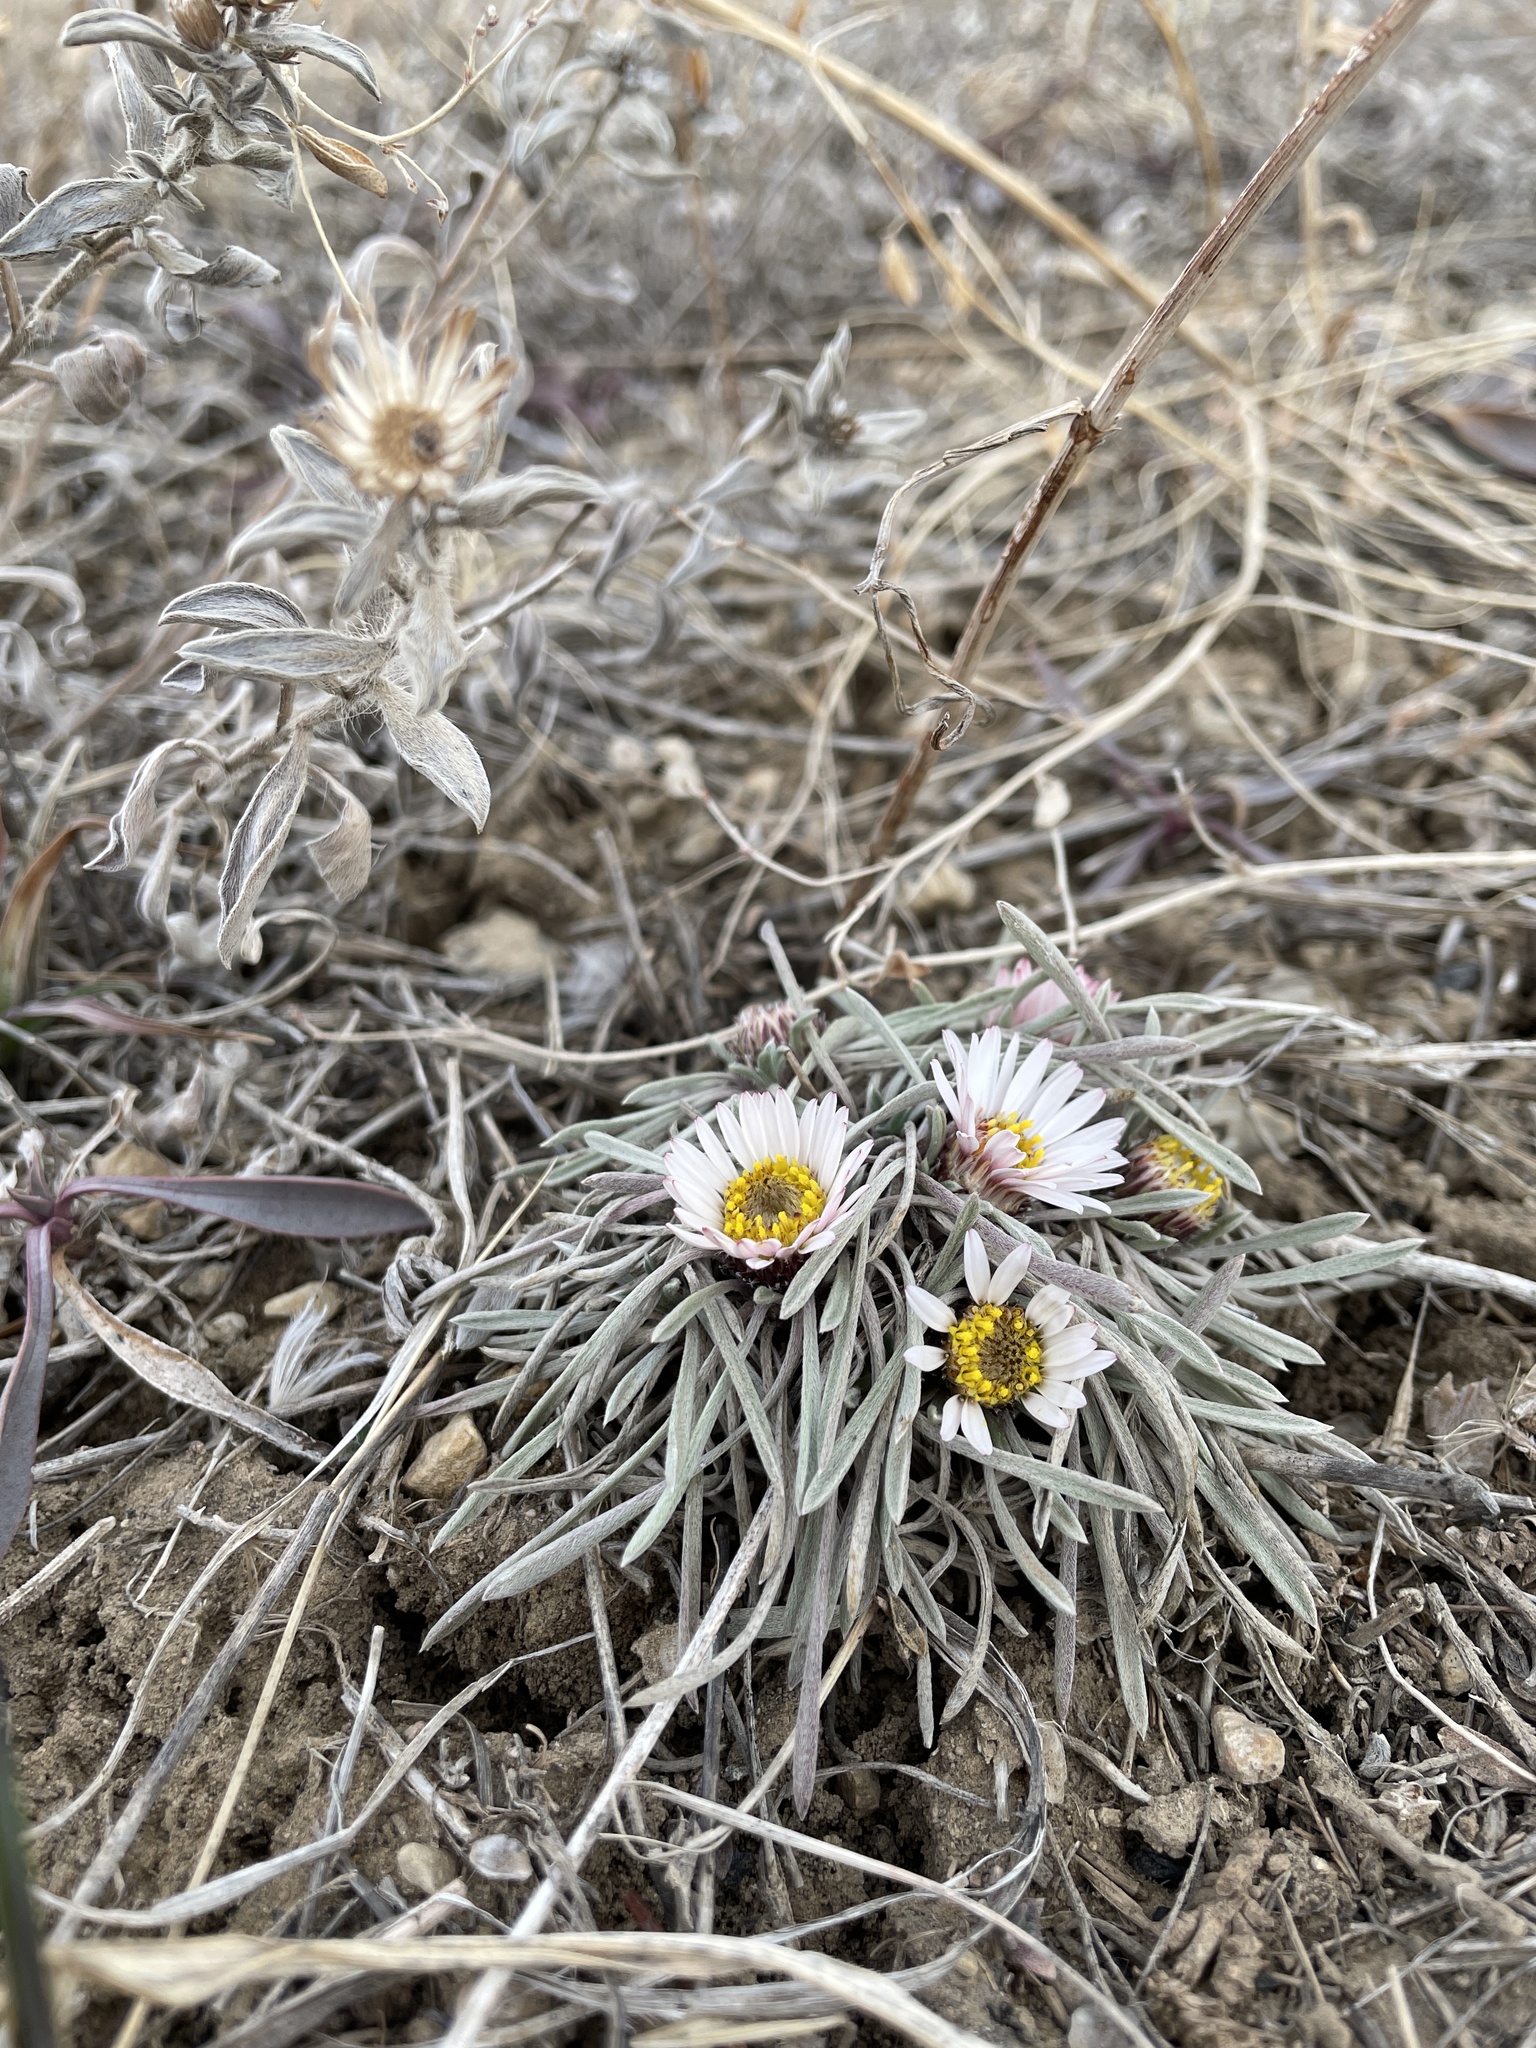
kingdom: Plantae
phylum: Tracheophyta
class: Magnoliopsida
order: Asterales
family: Asteraceae
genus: Townsendia
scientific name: Townsendia hookeri
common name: Hooker's townsend daisy
